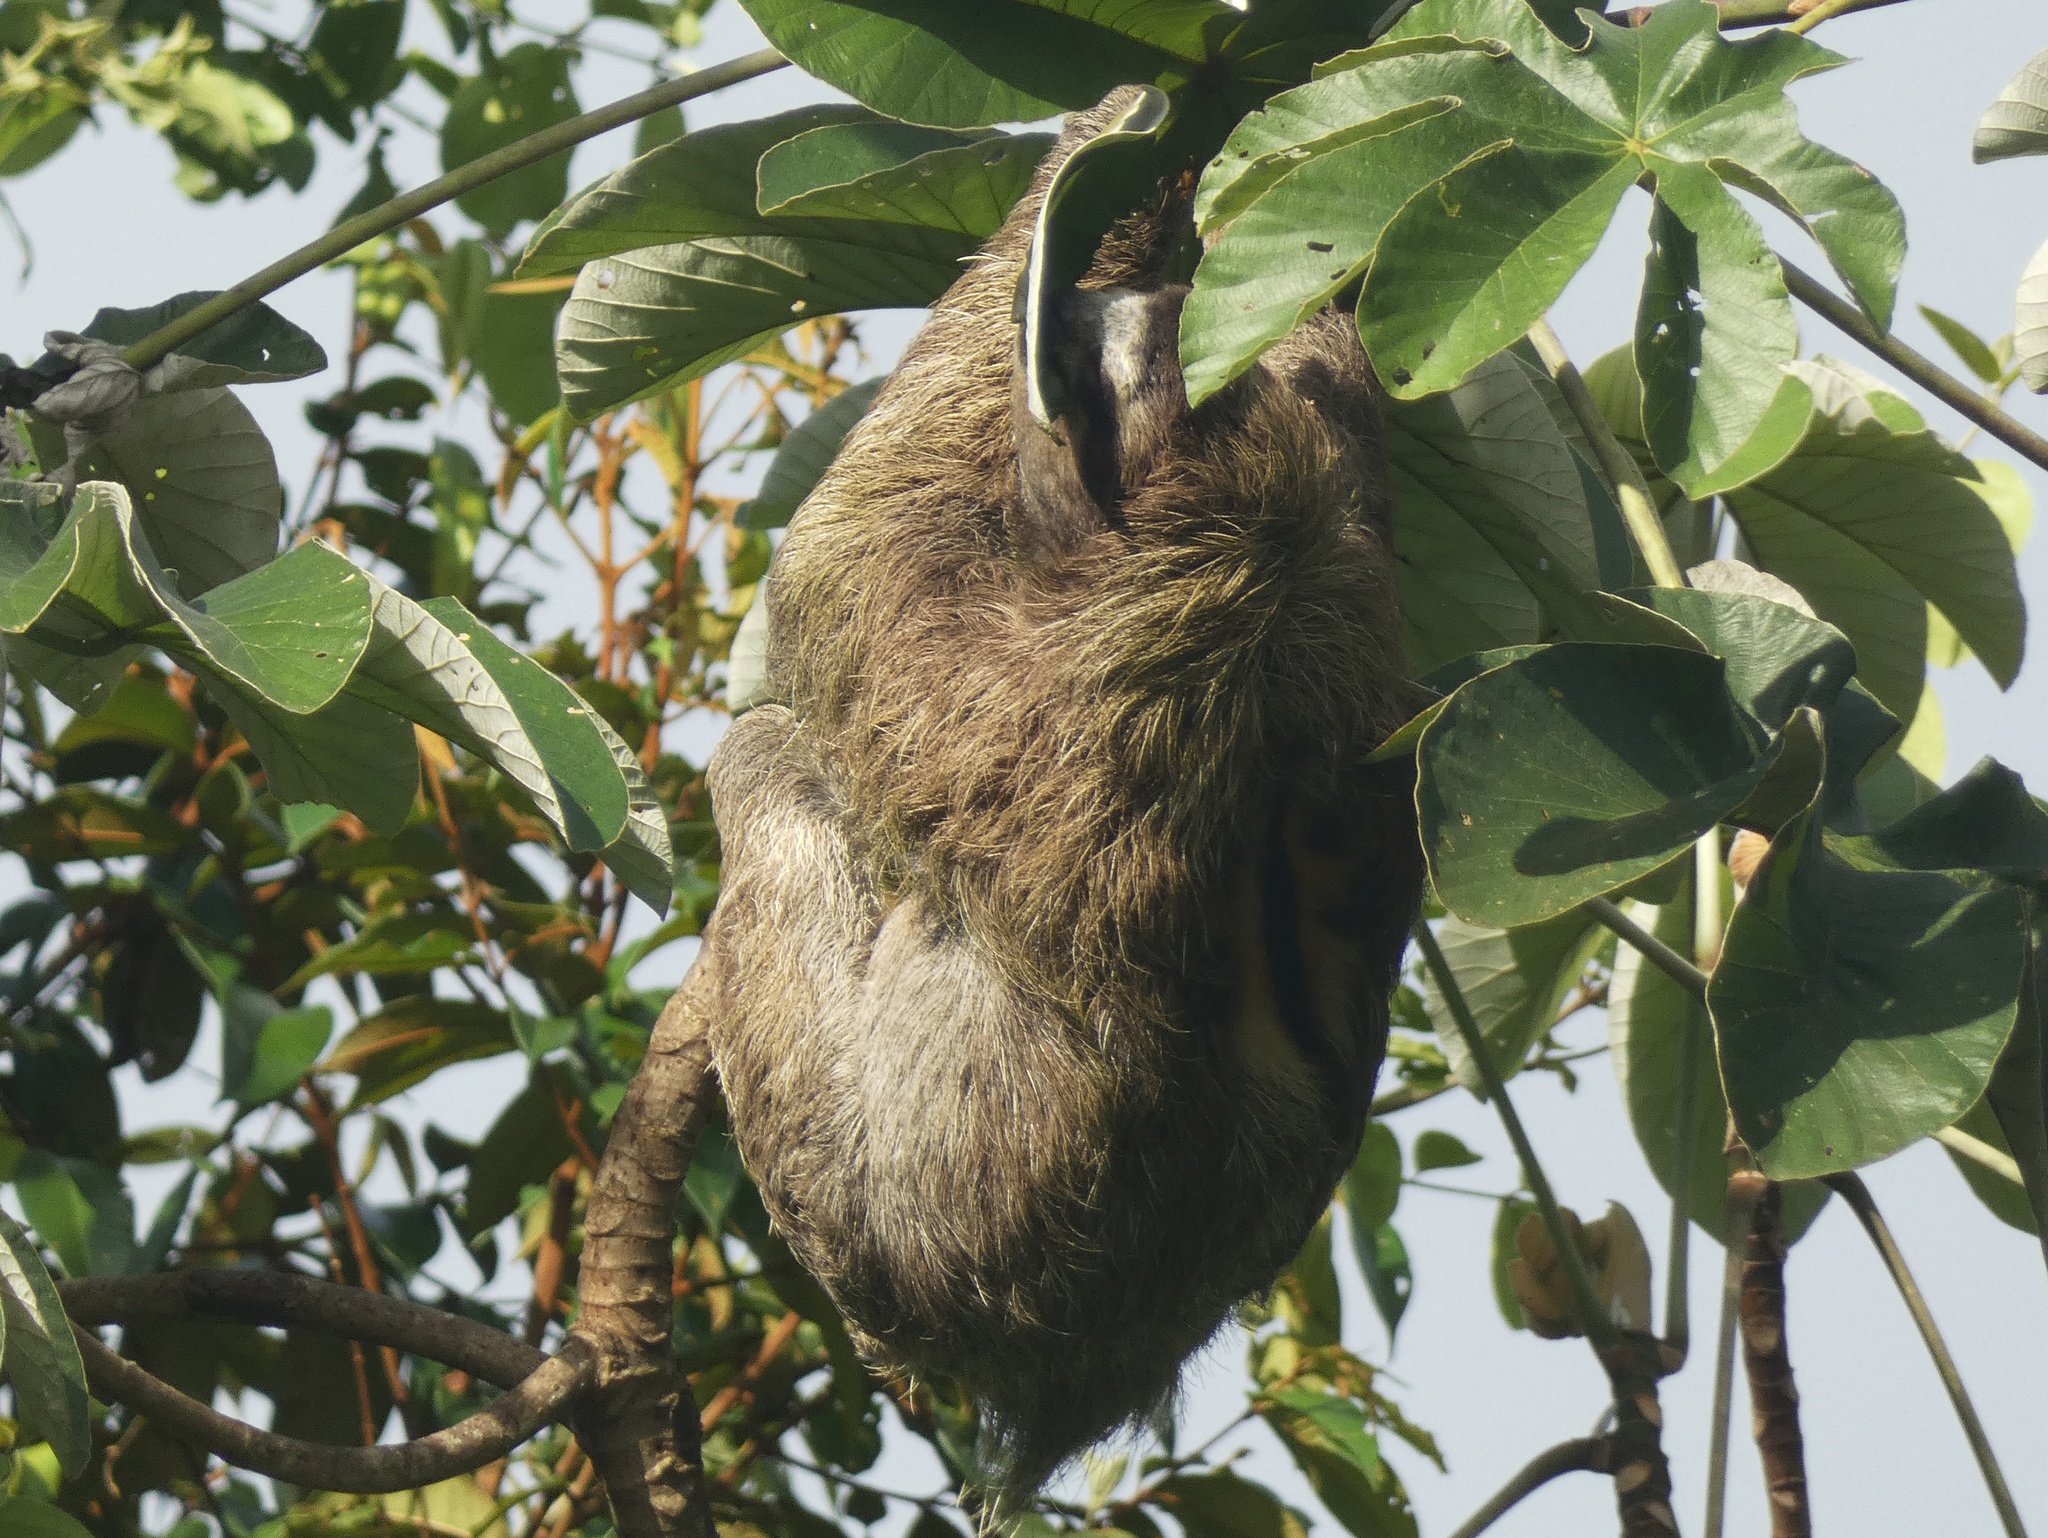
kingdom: Animalia
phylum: Chordata
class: Mammalia
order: Pilosa
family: Bradypodidae
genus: Bradypus
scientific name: Bradypus variegatus
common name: Brown-throated three-toed sloth
